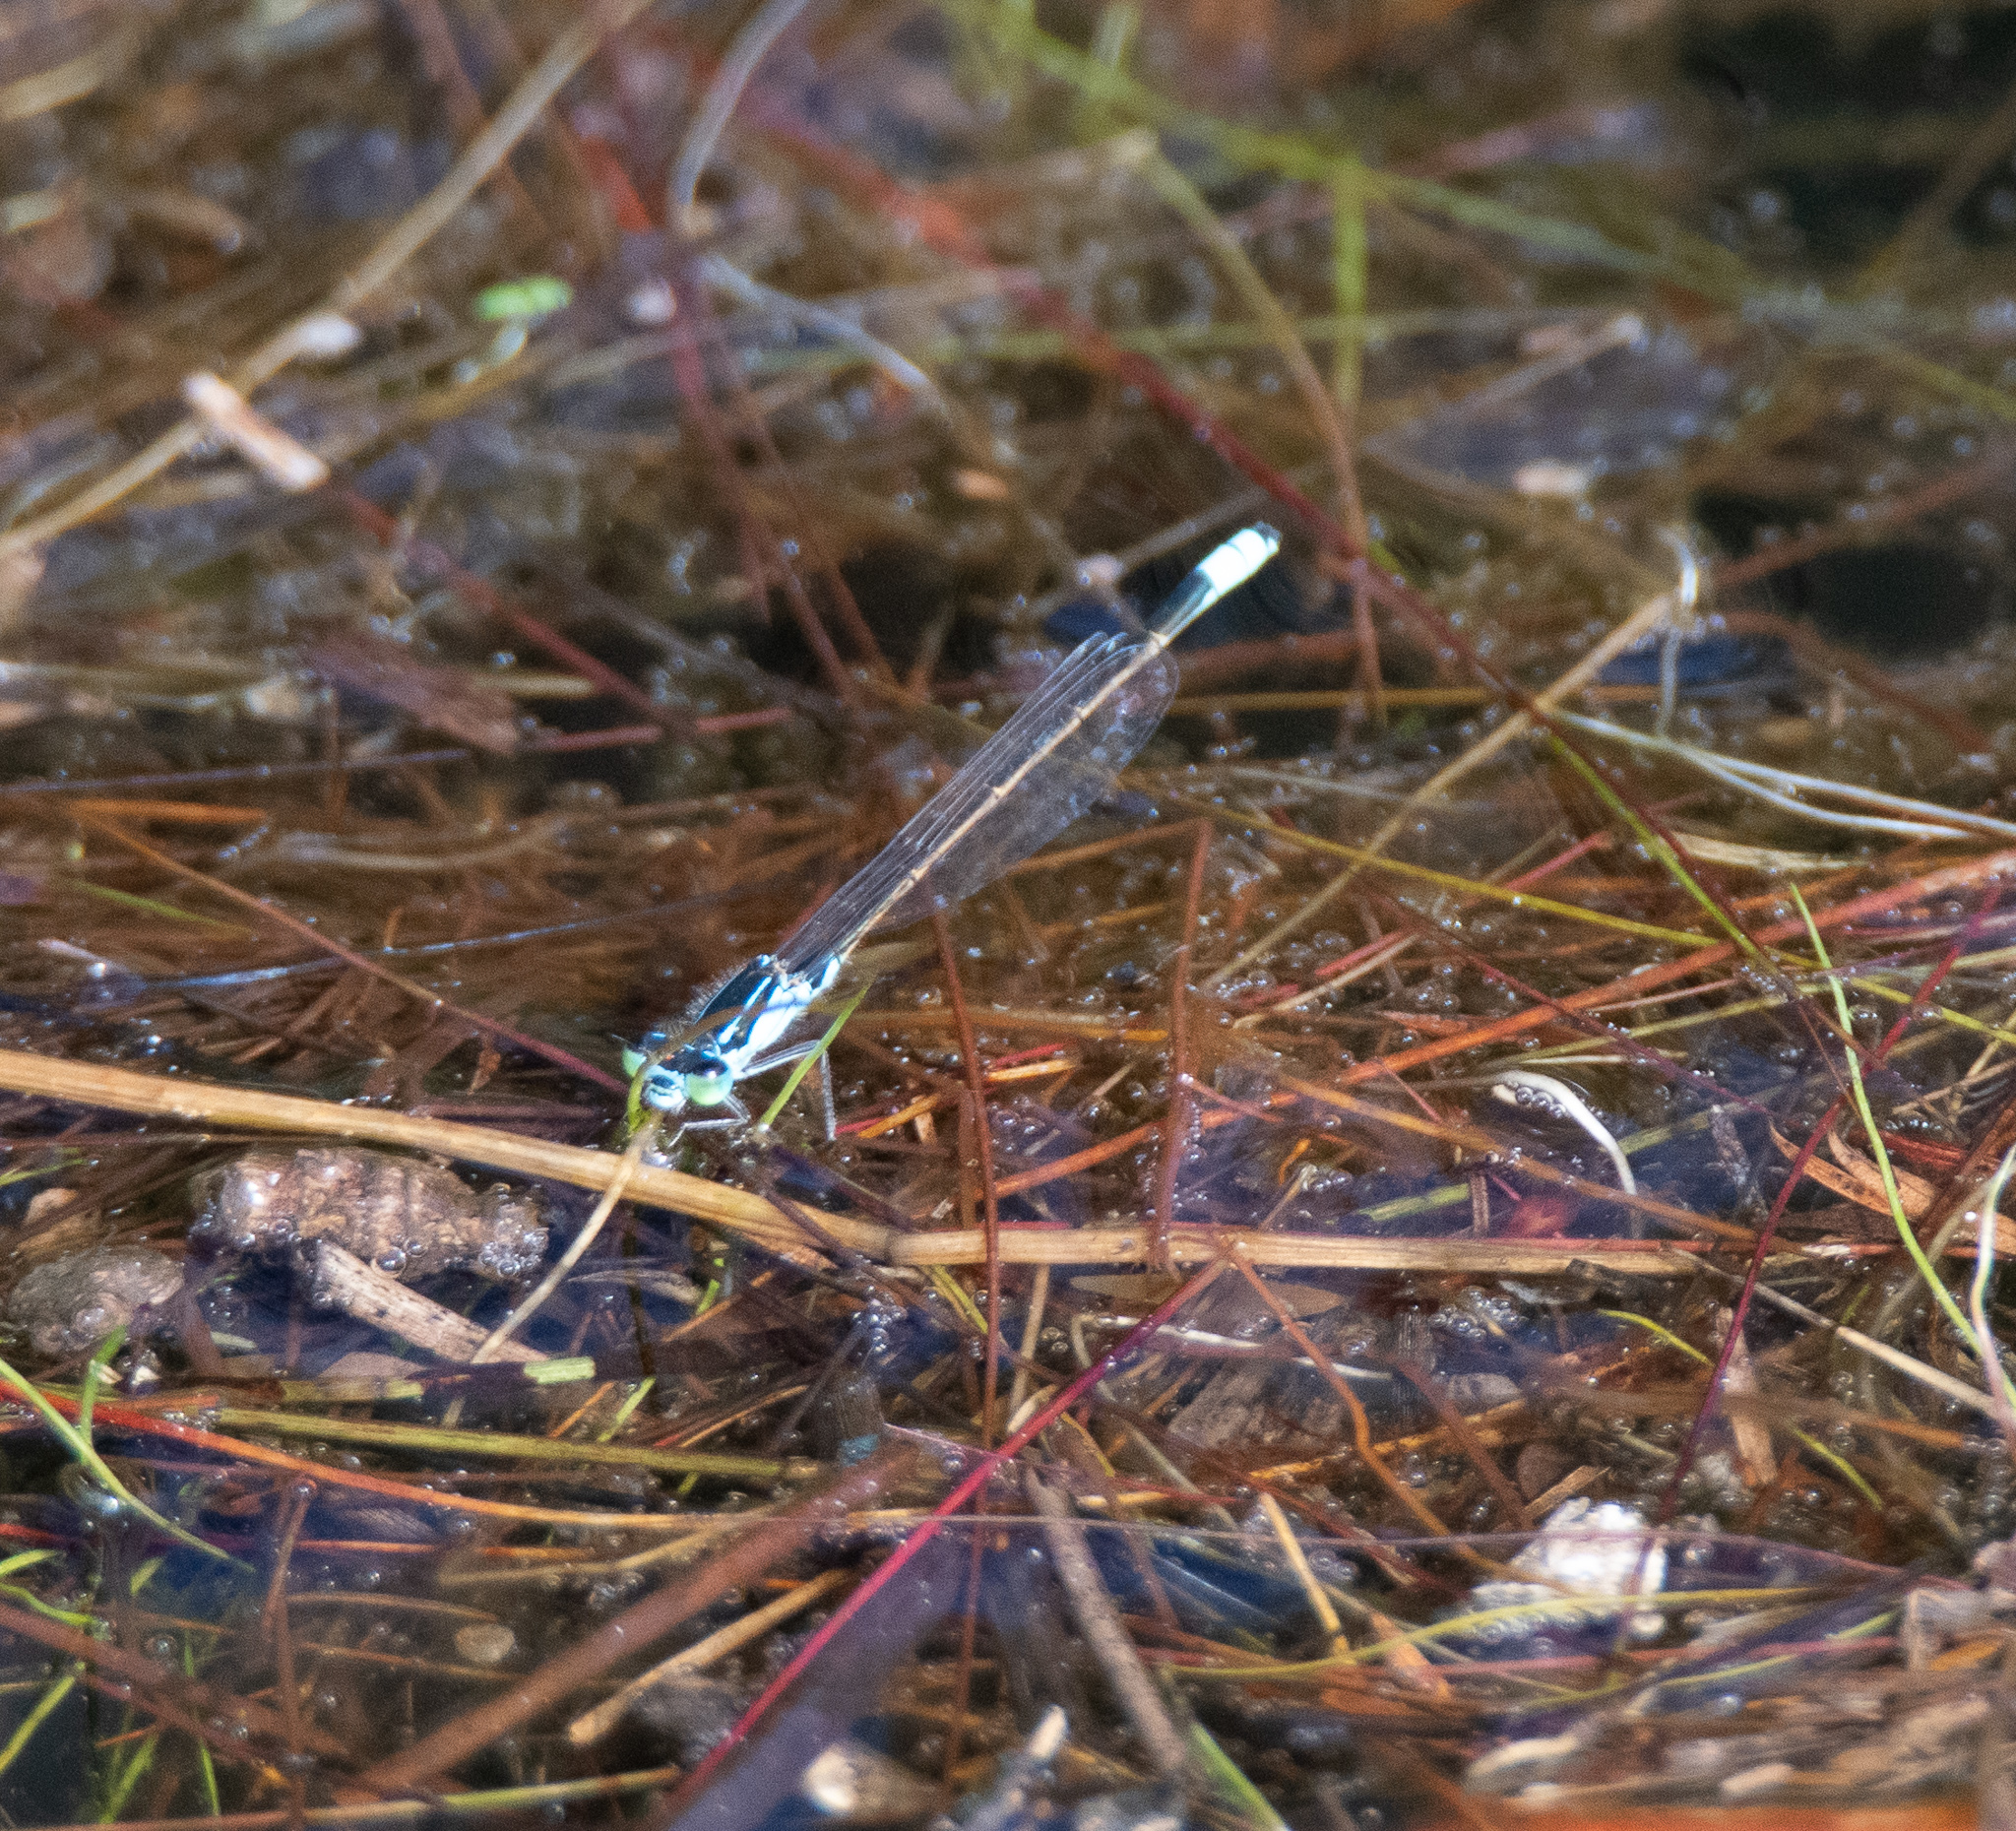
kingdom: Animalia
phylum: Arthropoda
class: Insecta
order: Odonata
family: Coenagrionidae
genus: Ischnura
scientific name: Ischnura heterosticta
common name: Common bluetail
